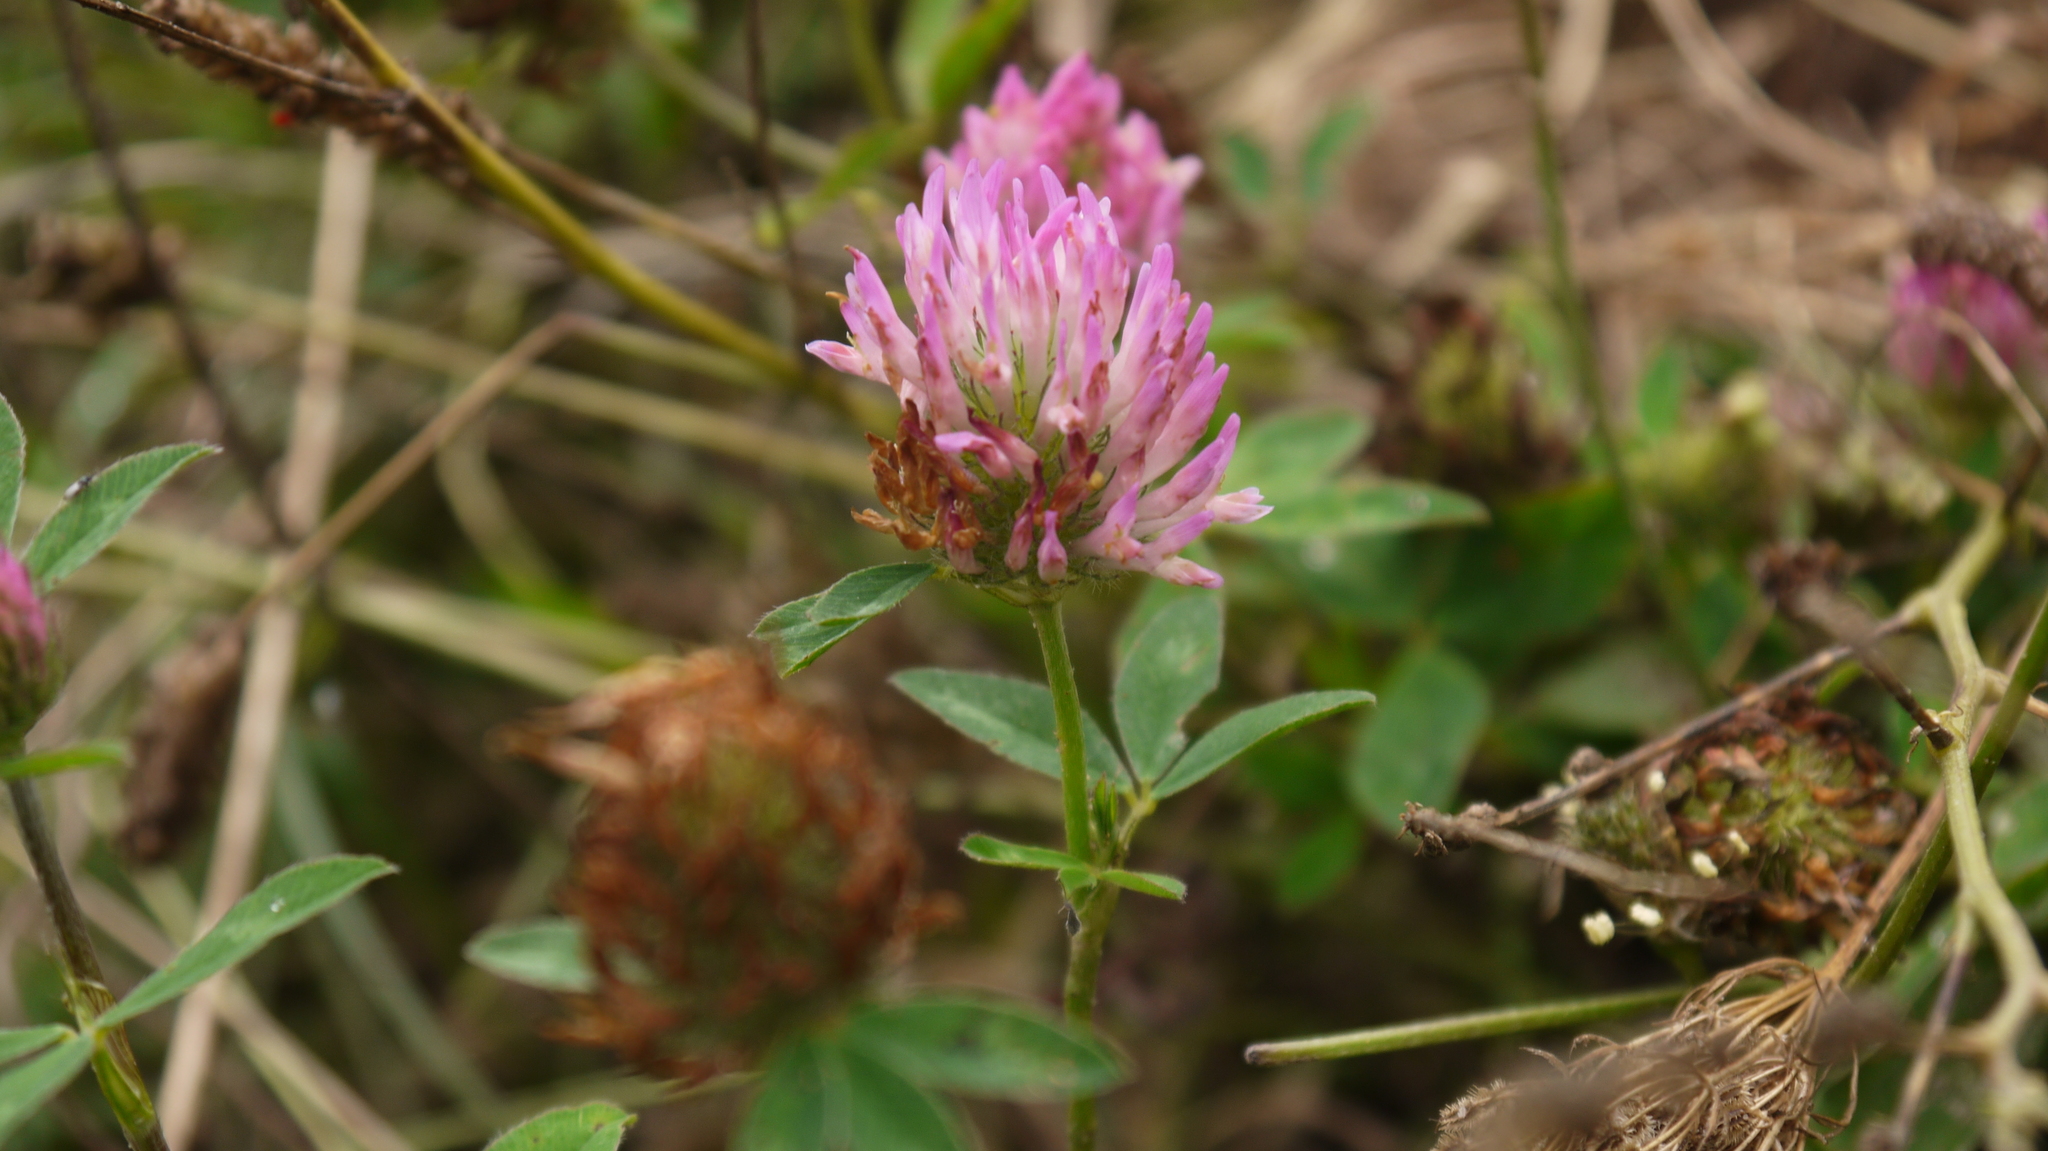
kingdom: Plantae
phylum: Tracheophyta
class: Magnoliopsida
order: Fabales
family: Fabaceae
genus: Trifolium
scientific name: Trifolium pratense
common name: Red clover
